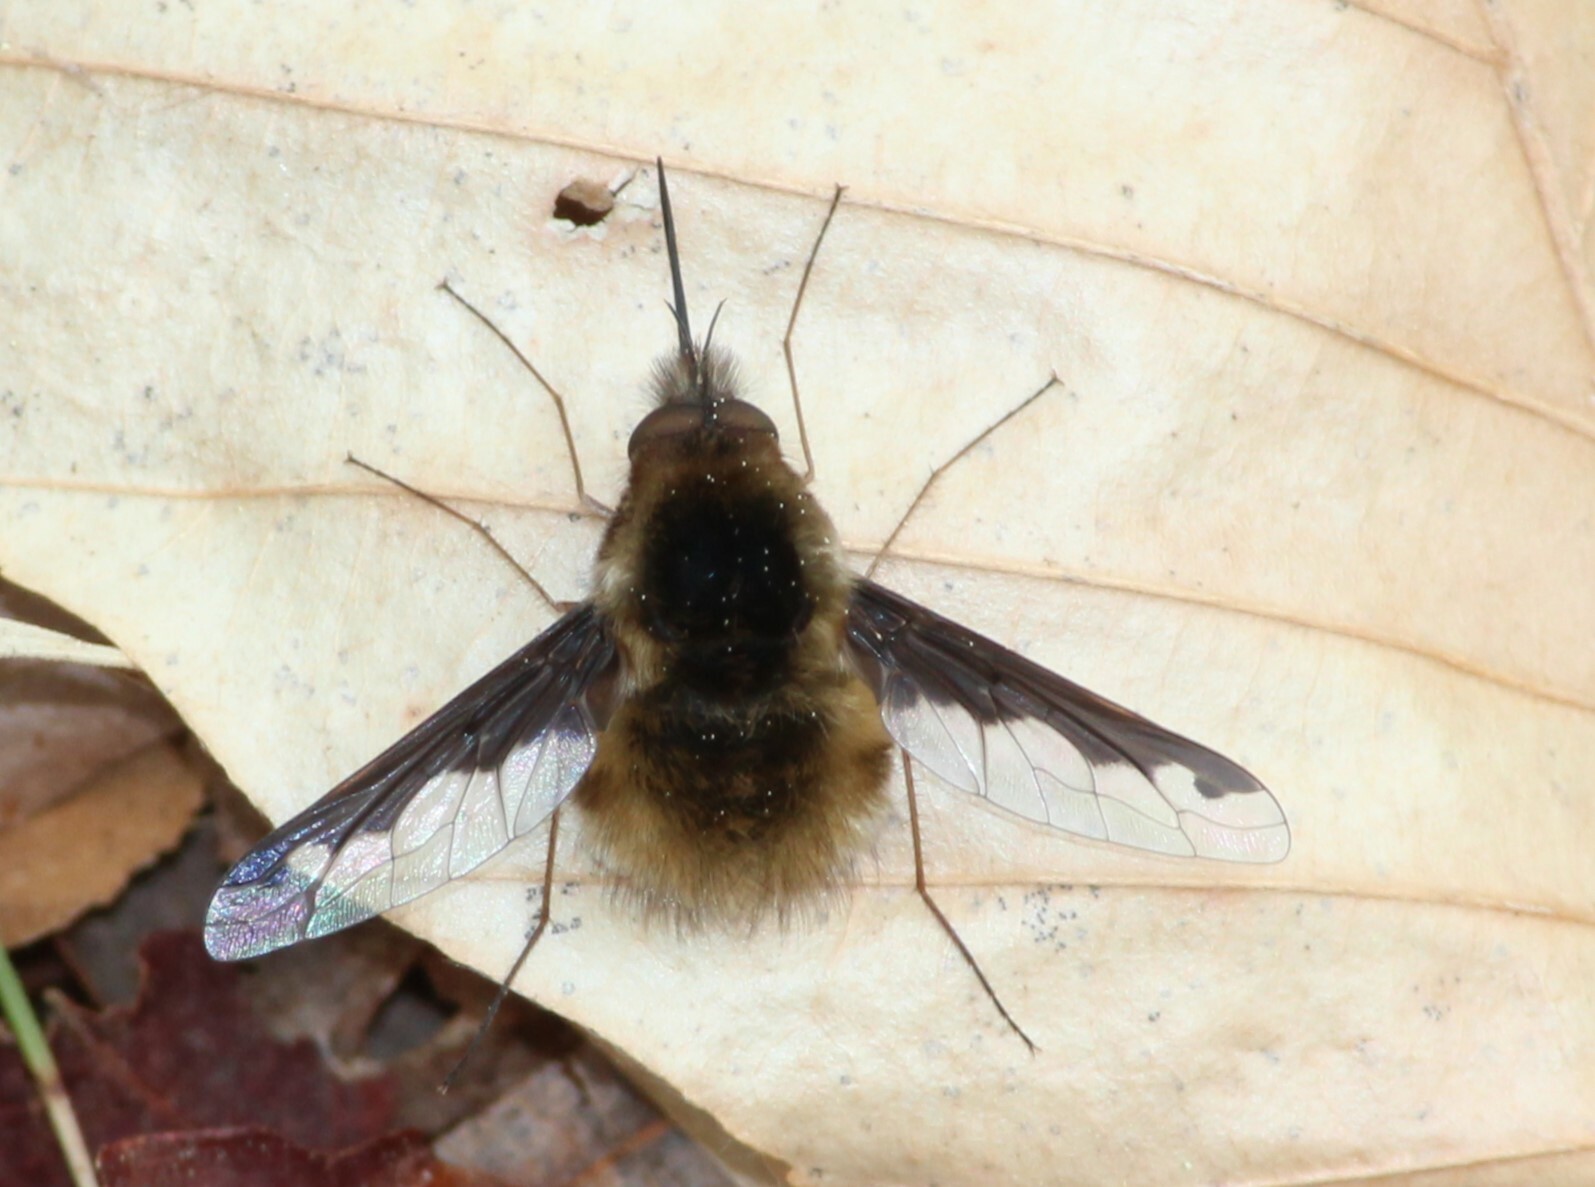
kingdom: Animalia
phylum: Arthropoda
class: Insecta
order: Diptera
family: Bombyliidae
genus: Bombylius
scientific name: Bombylius major
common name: Bee fly
